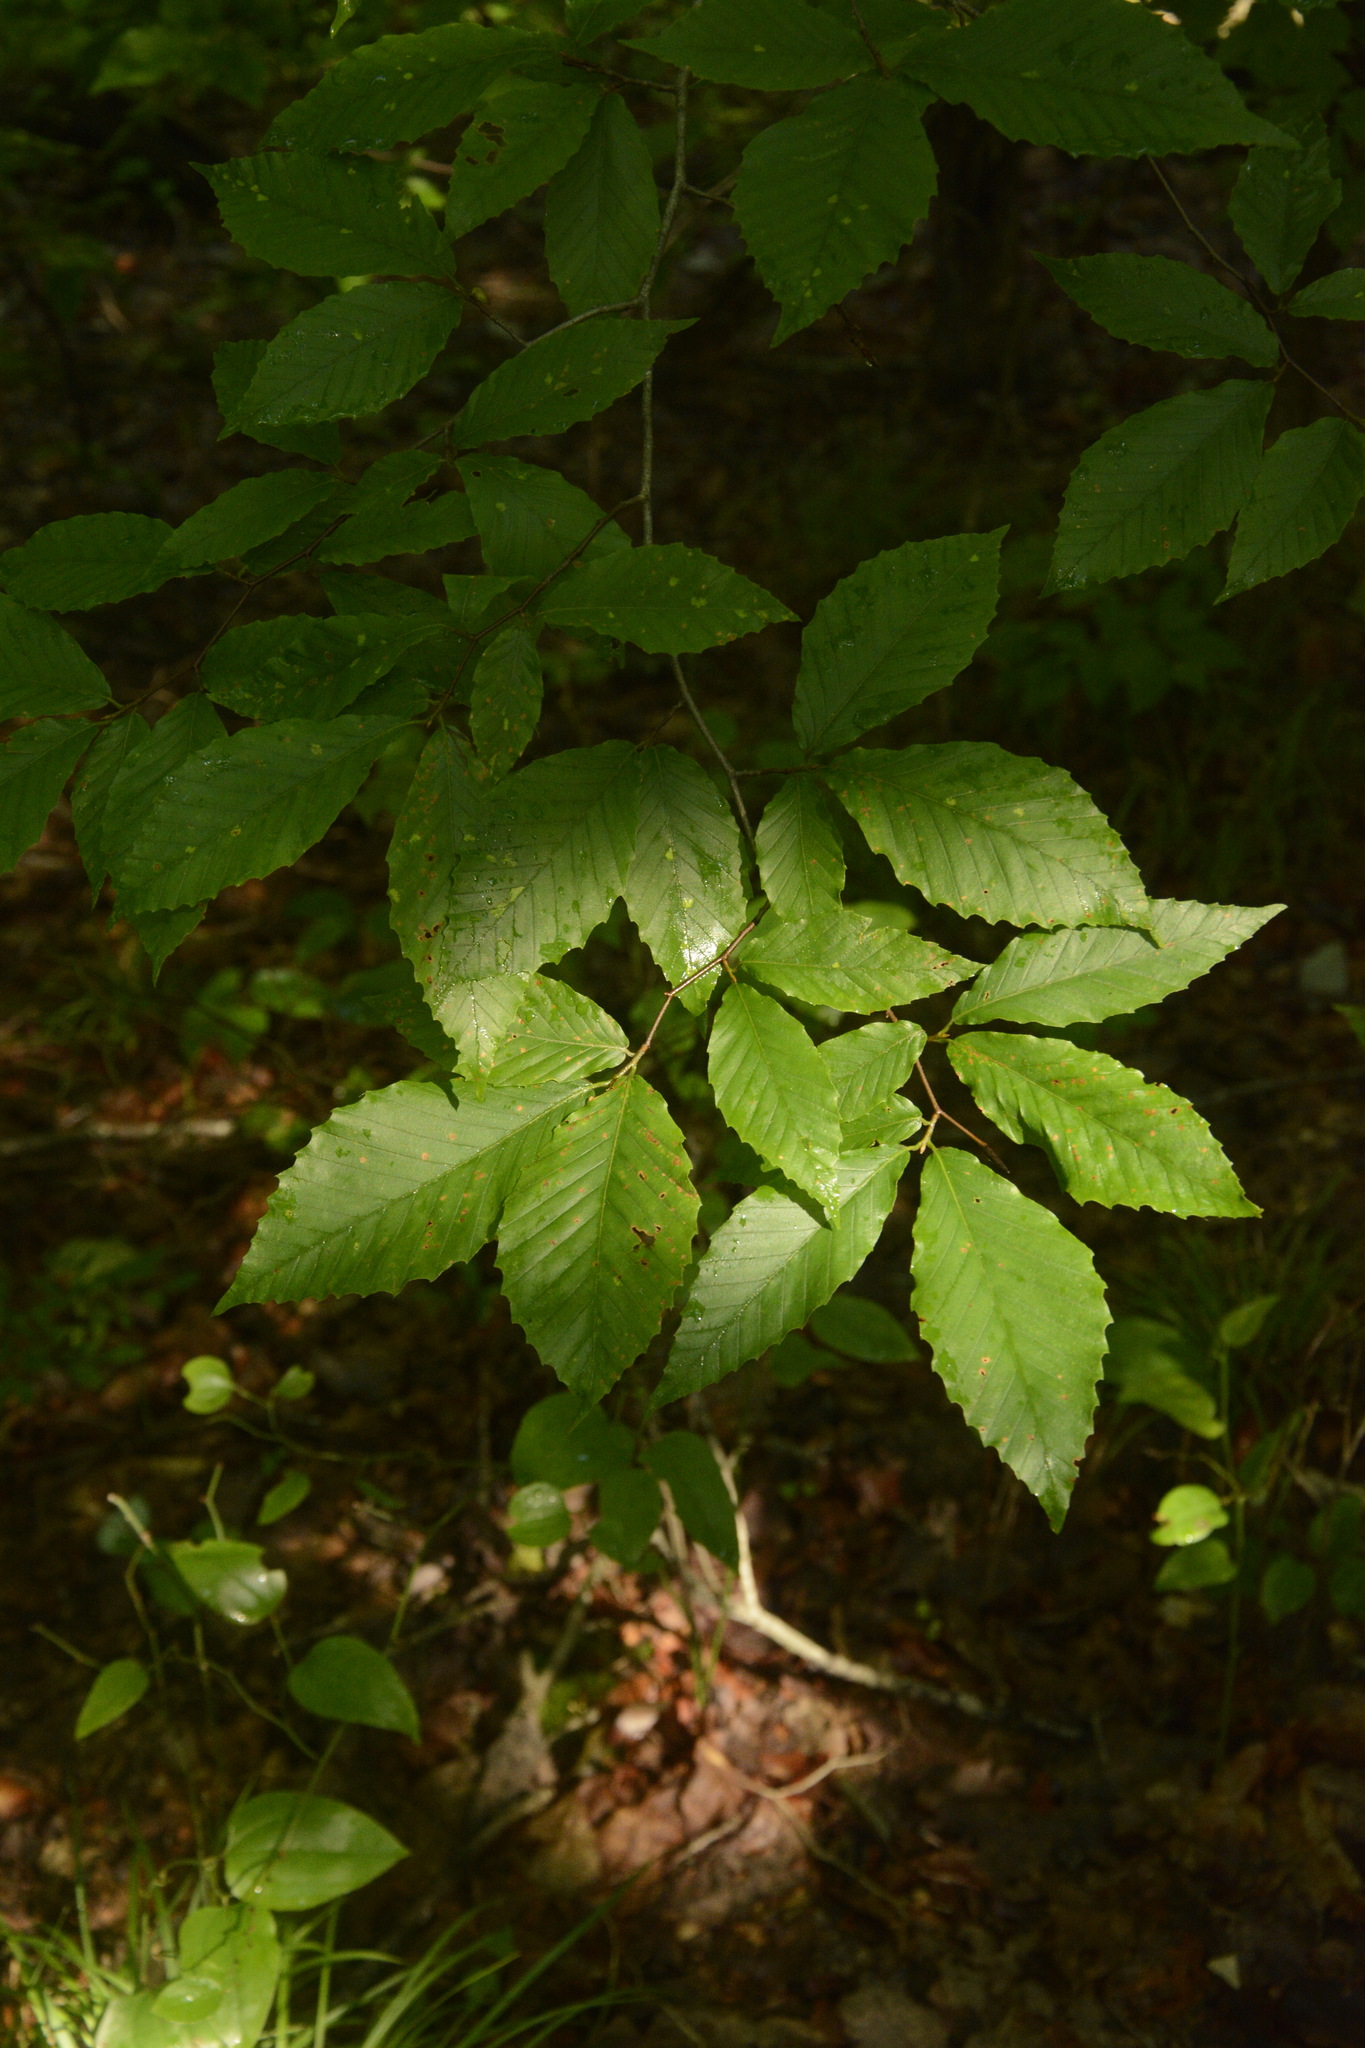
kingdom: Plantae
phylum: Tracheophyta
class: Magnoliopsida
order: Fagales
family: Fagaceae
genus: Fagus
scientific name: Fagus grandifolia
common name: American beech
